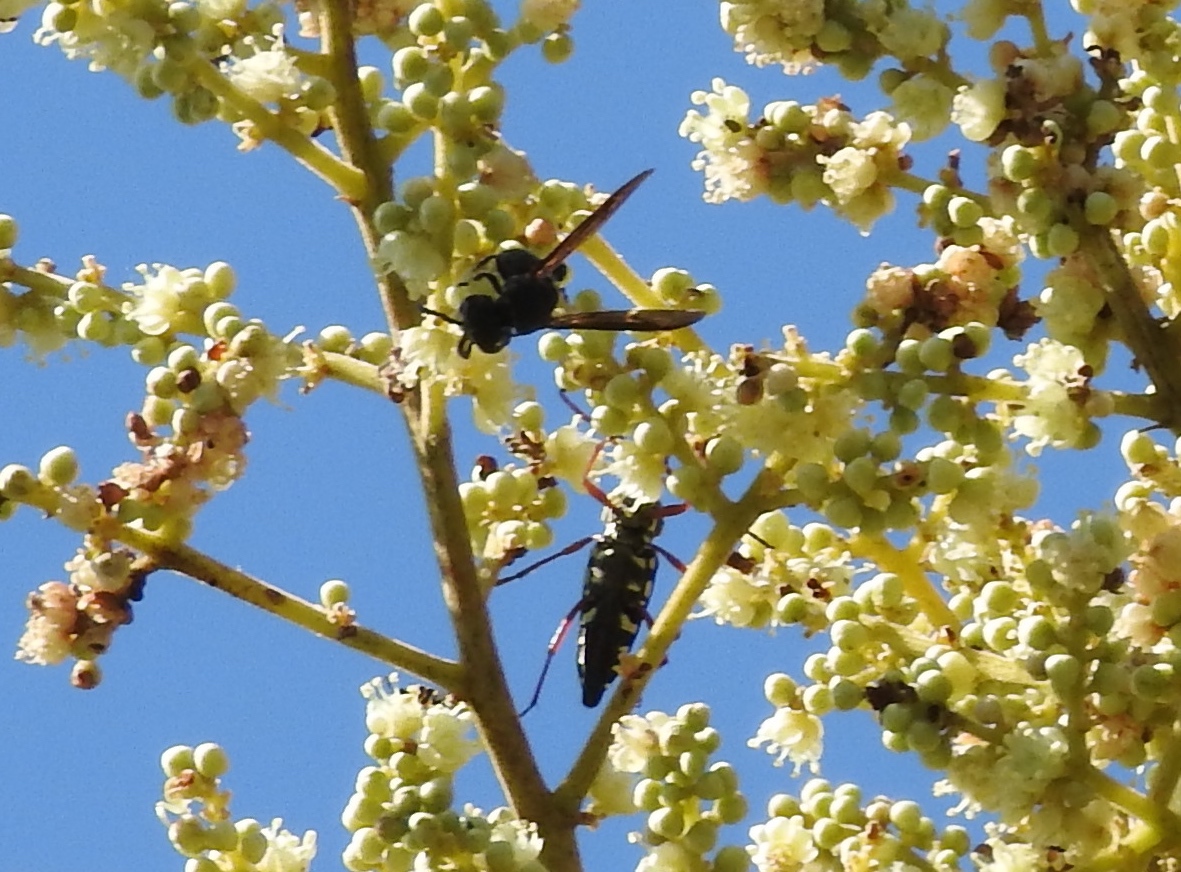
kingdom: Animalia
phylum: Arthropoda
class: Insecta
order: Coleoptera
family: Cerambycidae
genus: Placosternus
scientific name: Placosternus
